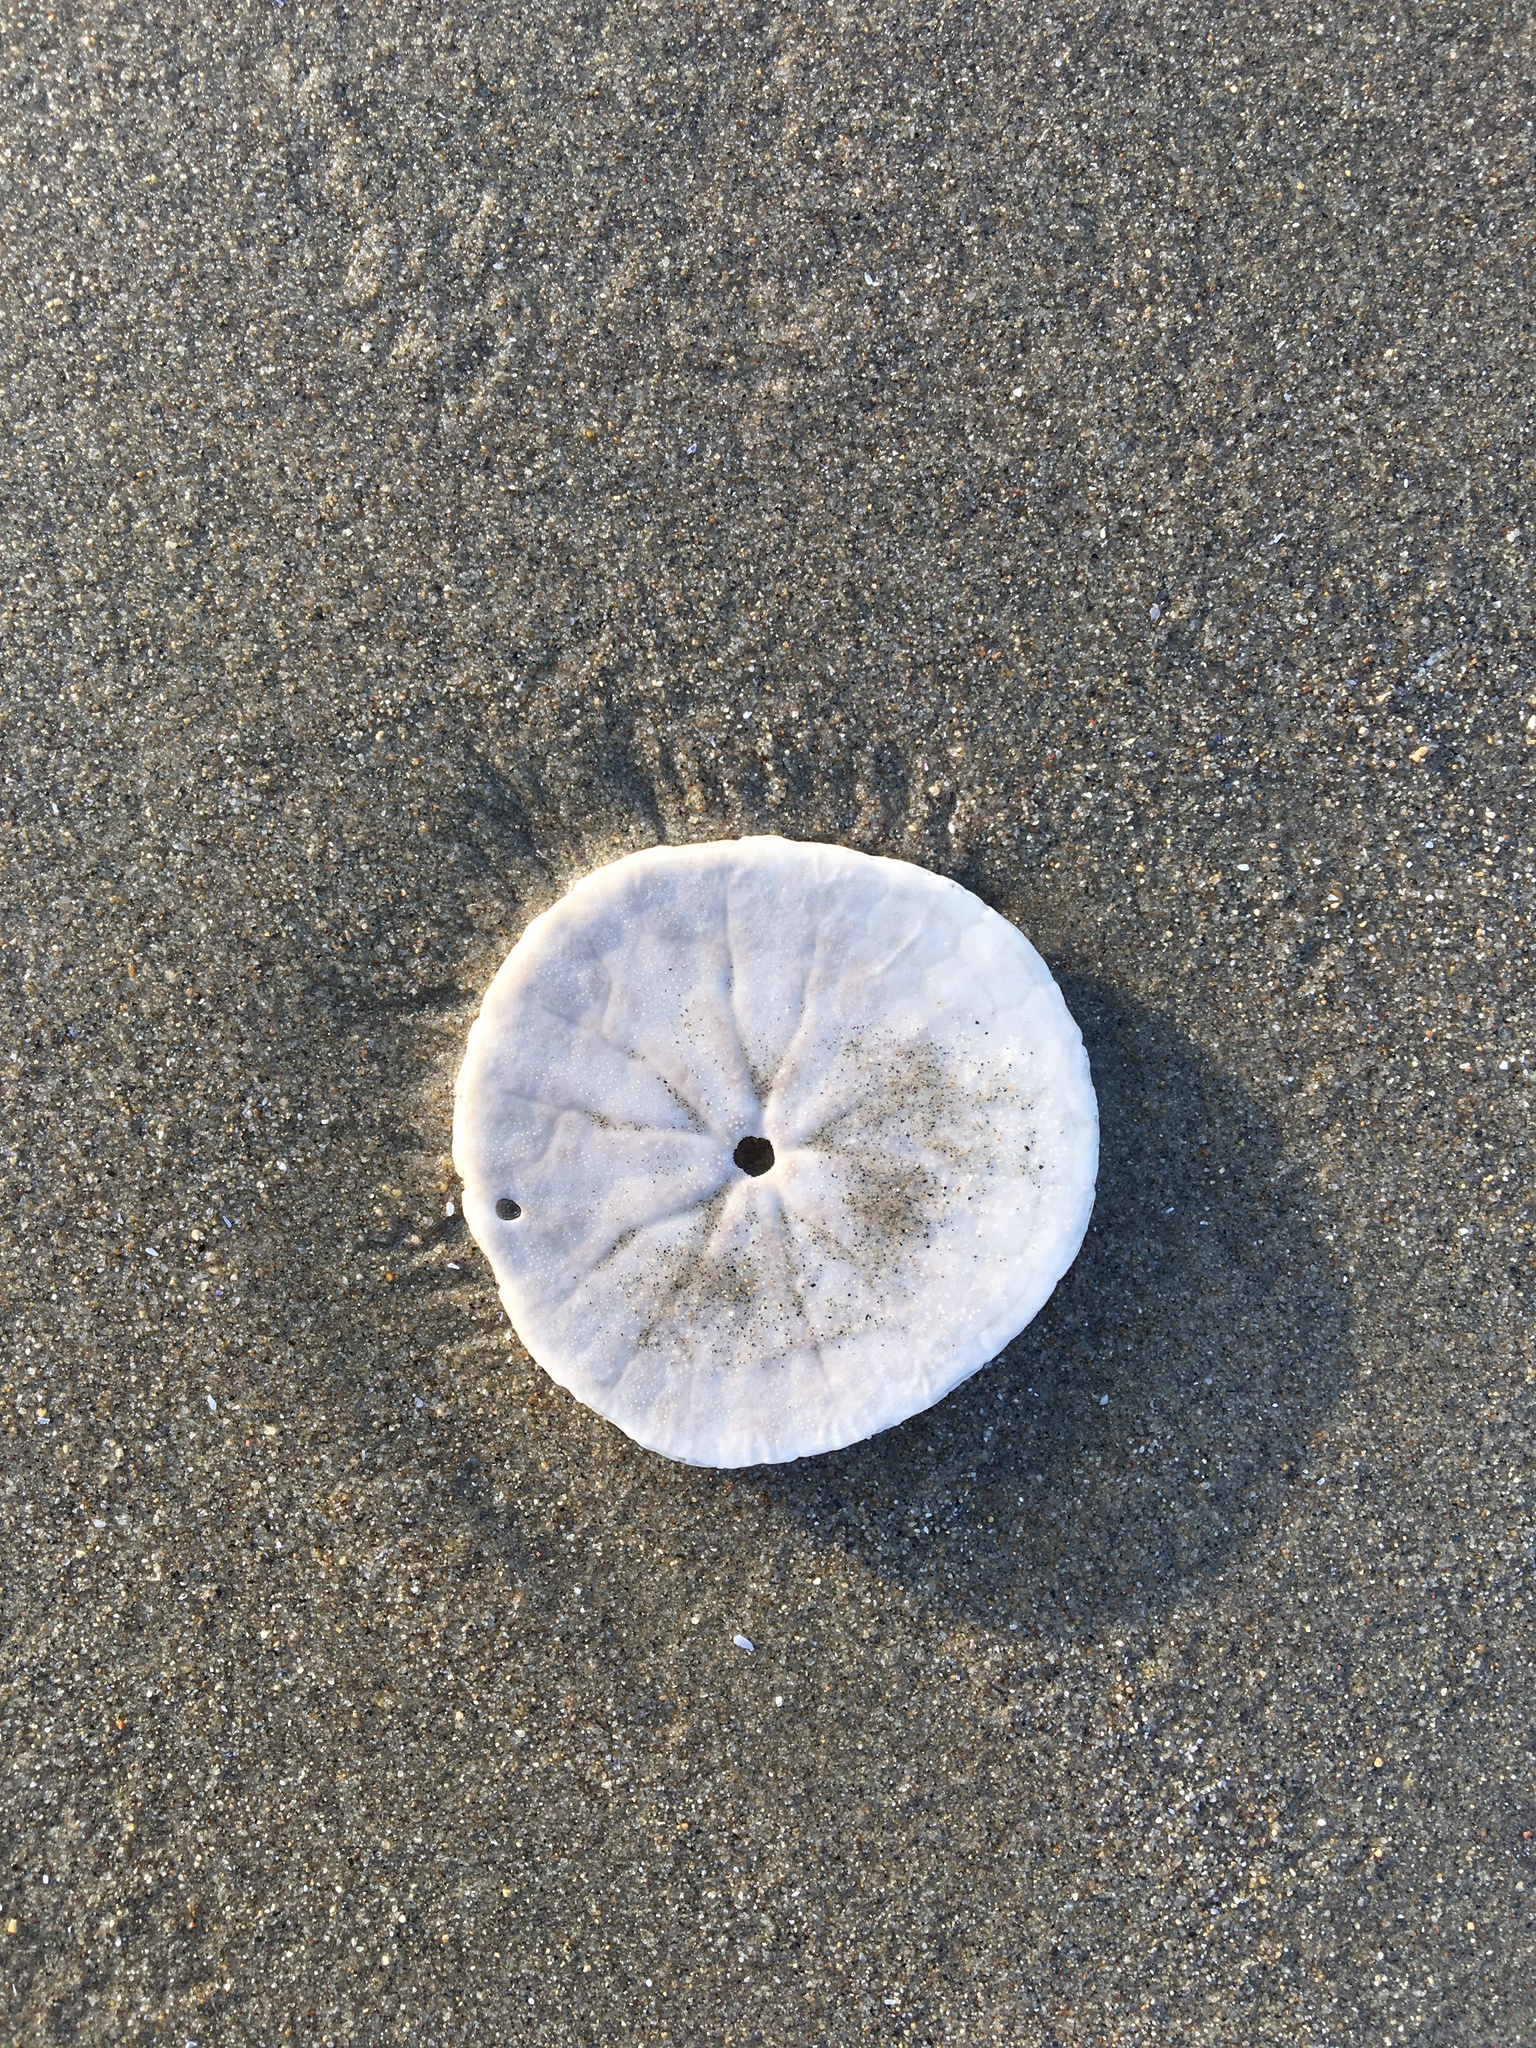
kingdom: Animalia
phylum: Echinodermata
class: Echinoidea
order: Echinolampadacea
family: Dendrasteridae
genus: Dendraster
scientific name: Dendraster excentricus
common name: Eccentric sand dollar sea urchin
